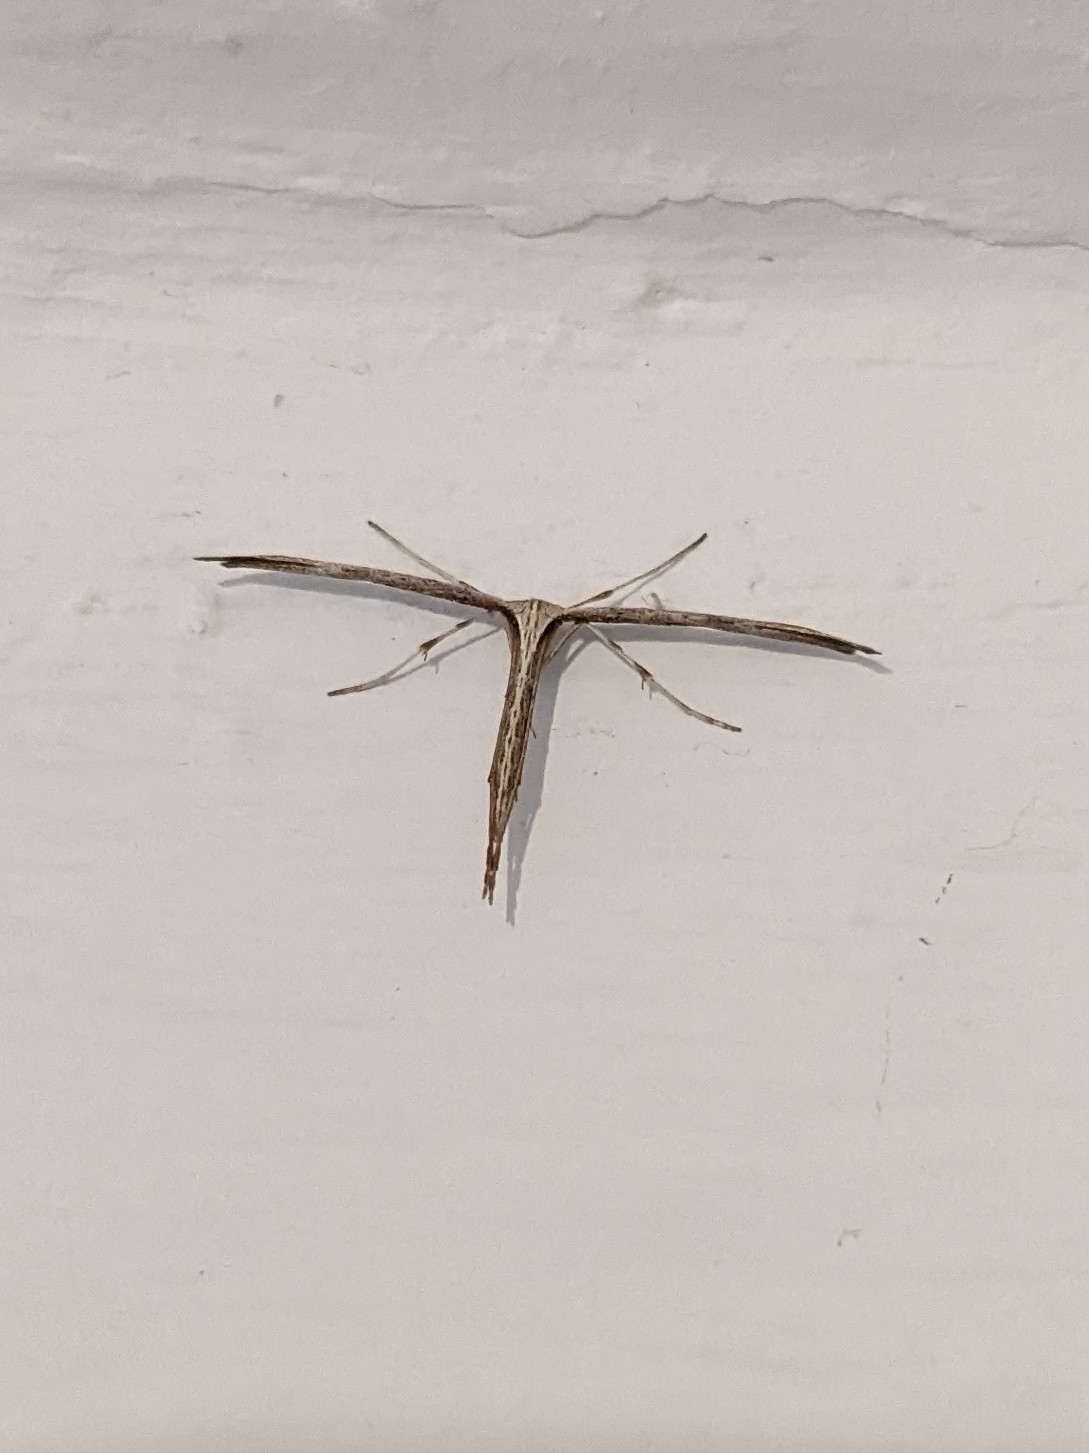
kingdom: Animalia
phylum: Arthropoda
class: Insecta
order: Lepidoptera
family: Pterophoridae
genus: Emmelina
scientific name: Emmelina monodactyla
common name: Common plume
